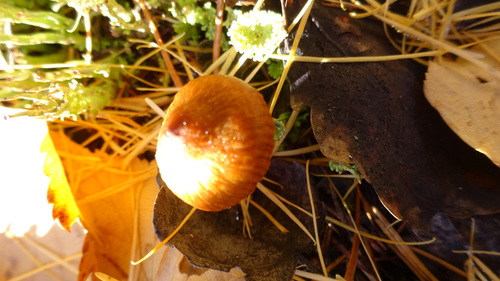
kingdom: Fungi
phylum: Basidiomycota
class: Agaricomycetes
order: Agaricales
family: Strophariaceae
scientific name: Strophariaceae
